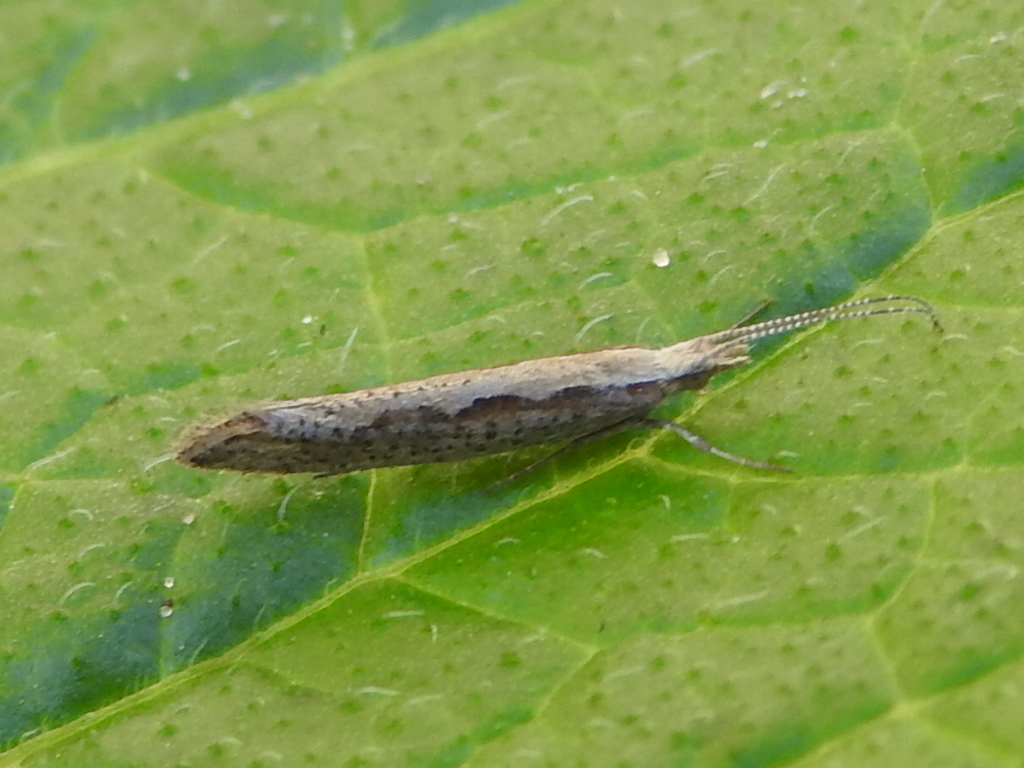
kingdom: Animalia
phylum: Arthropoda
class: Insecta
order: Lepidoptera
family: Plutellidae
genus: Plutella
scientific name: Plutella xylostella
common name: Diamond-back moth
